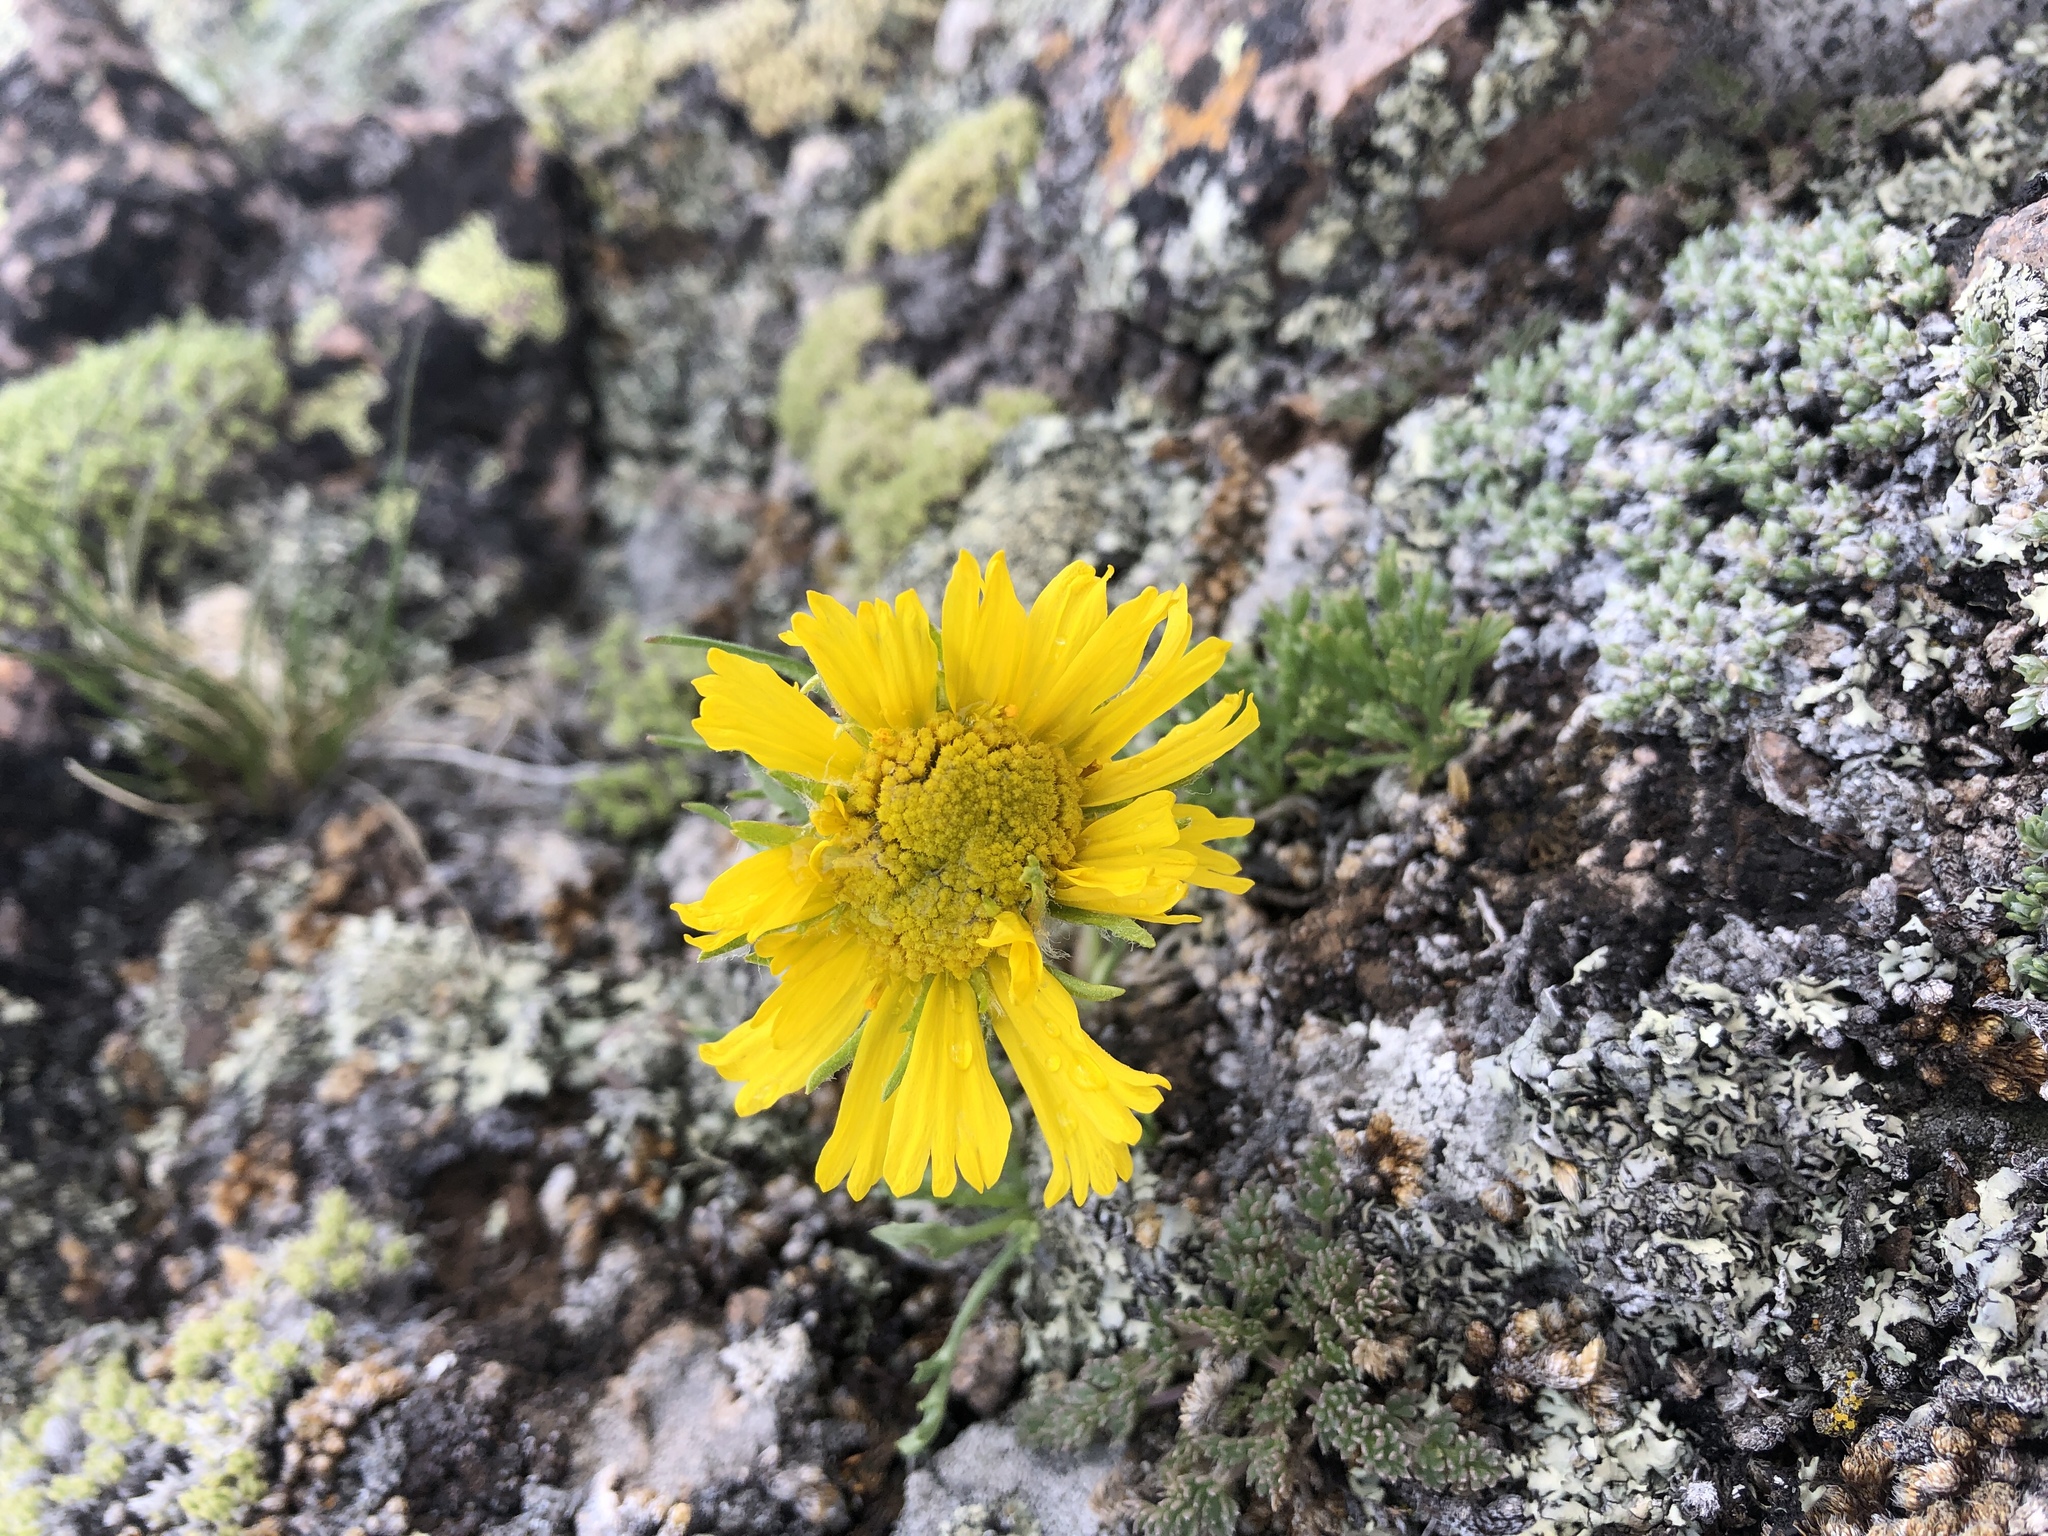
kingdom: Plantae
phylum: Tracheophyta
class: Magnoliopsida
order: Asterales
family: Asteraceae
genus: Hymenoxys
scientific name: Hymenoxys grandiflora
